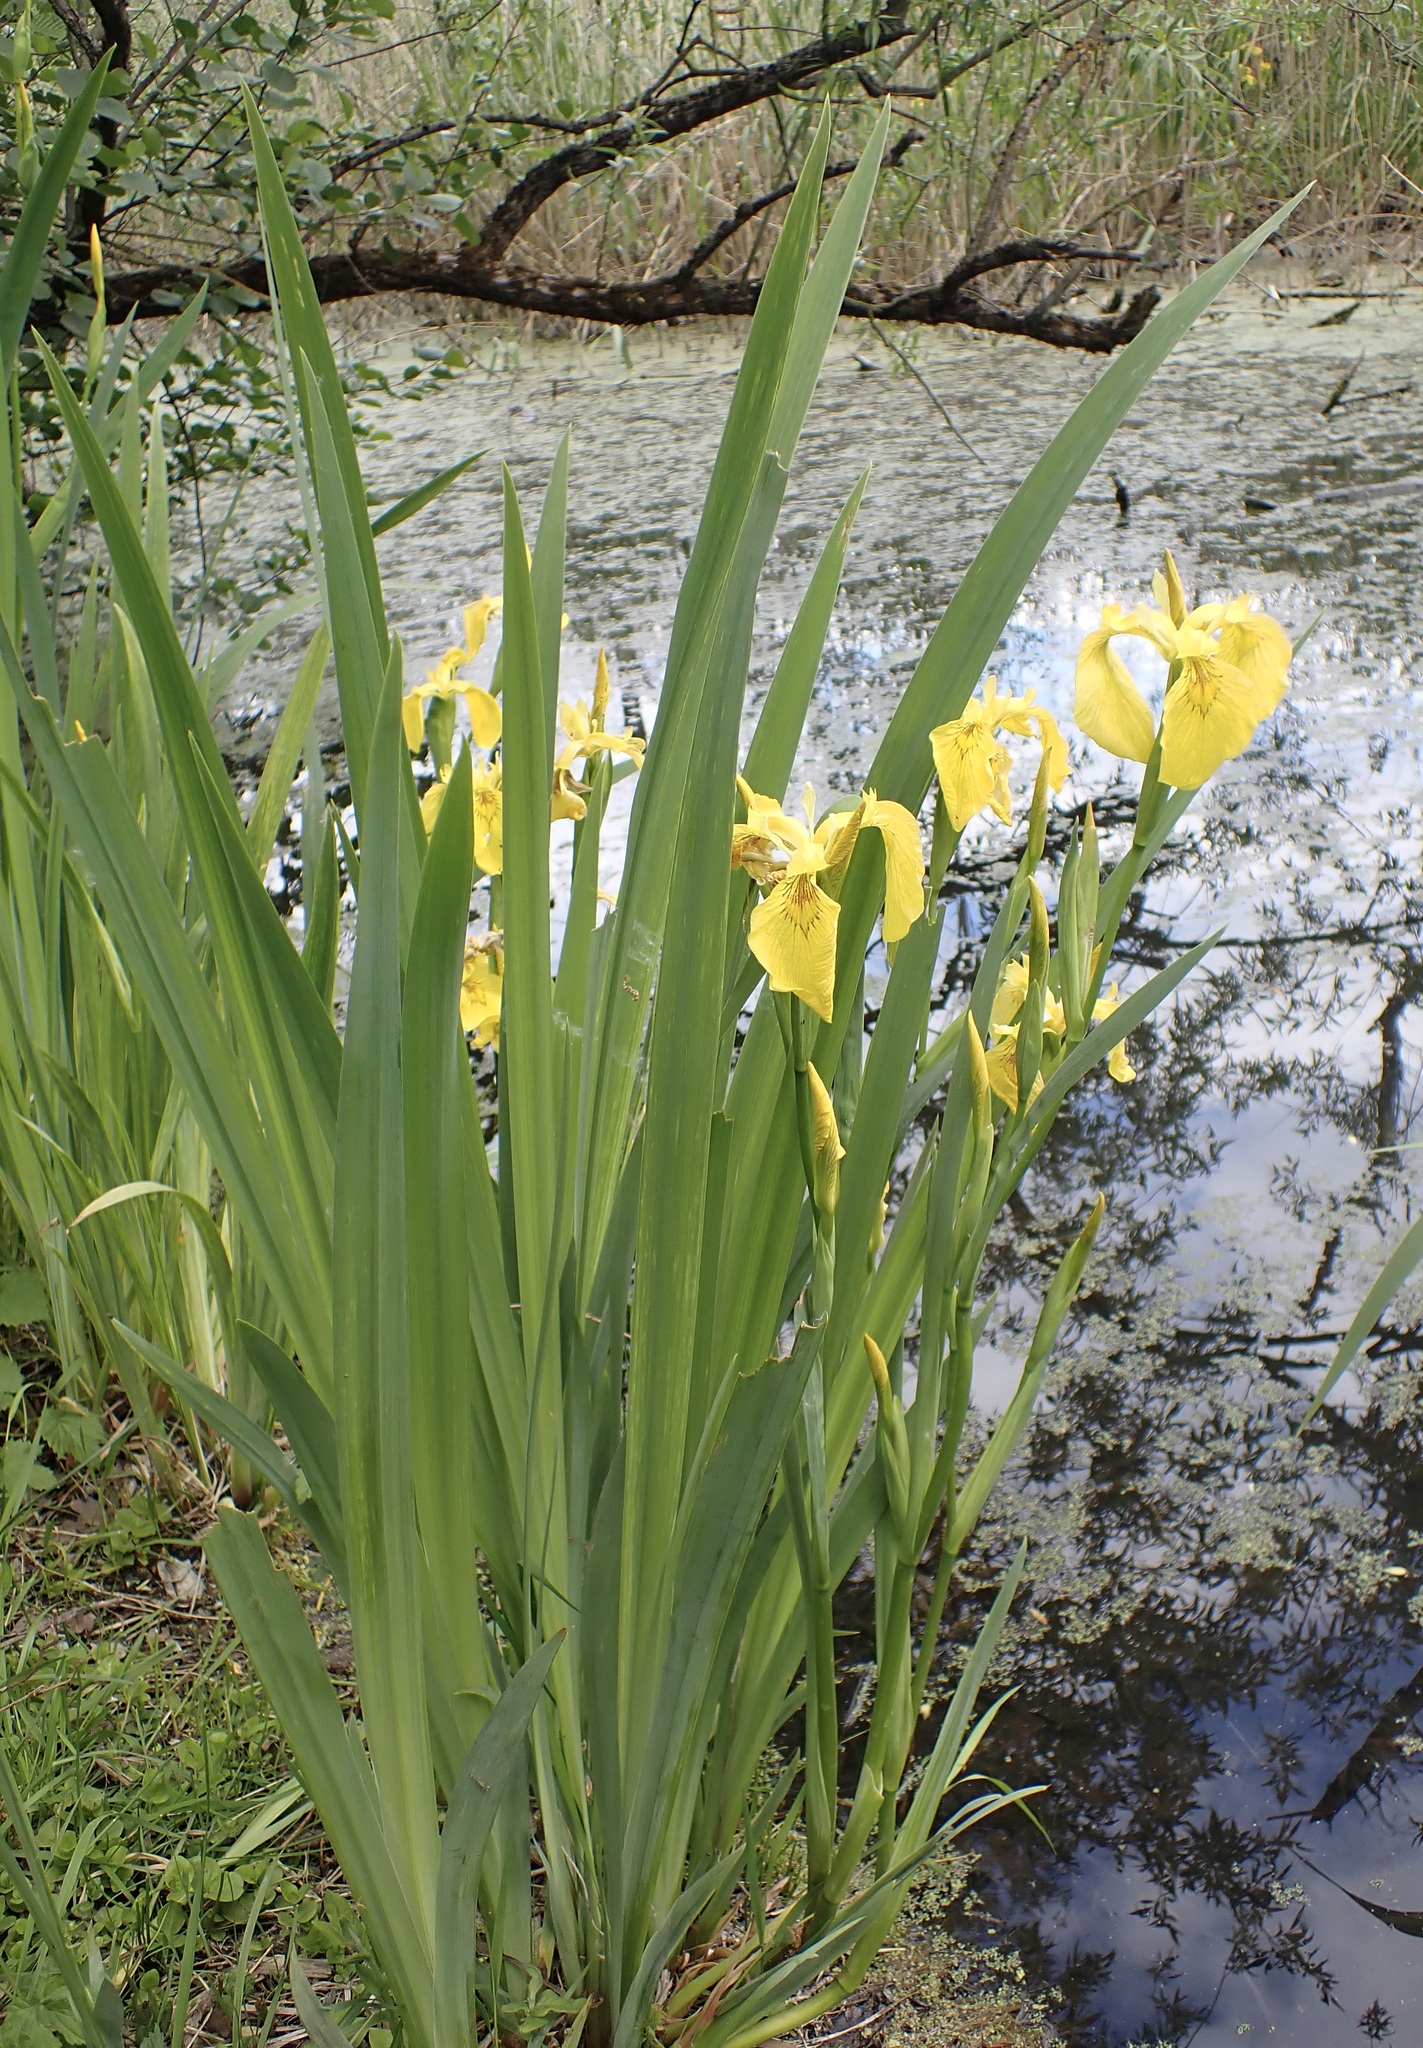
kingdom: Plantae
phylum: Tracheophyta
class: Liliopsida
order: Asparagales
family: Iridaceae
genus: Iris
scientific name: Iris pseudacorus
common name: Yellow flag
